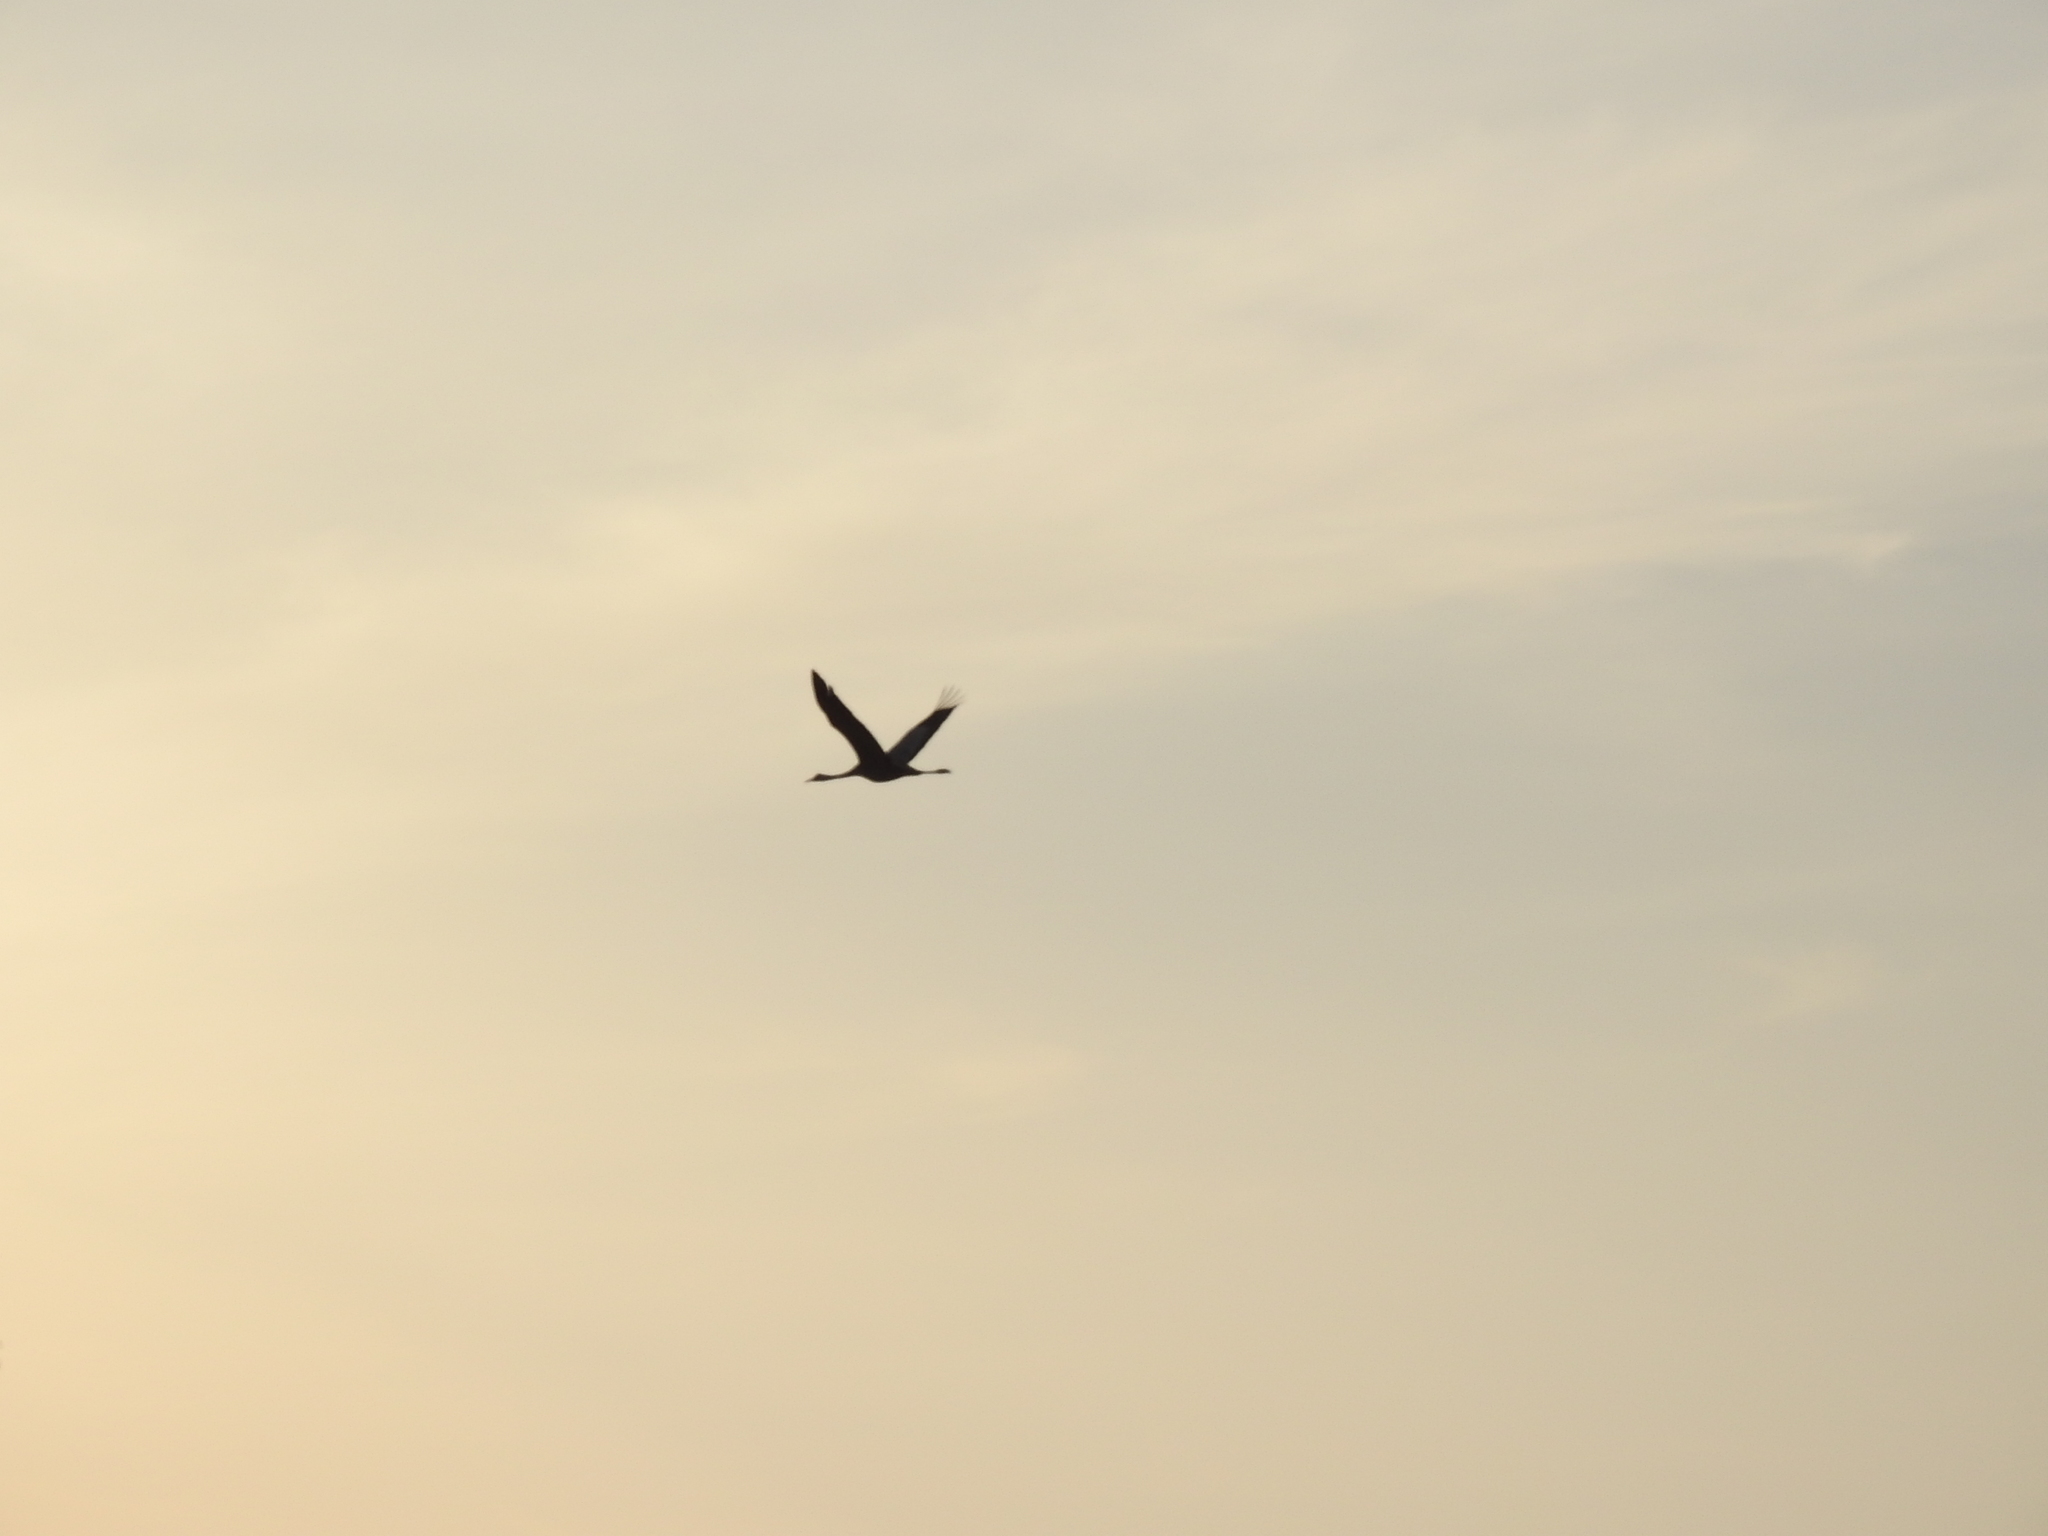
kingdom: Animalia
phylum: Chordata
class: Aves
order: Gruiformes
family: Gruidae
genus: Grus
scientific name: Grus grus
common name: Common crane
